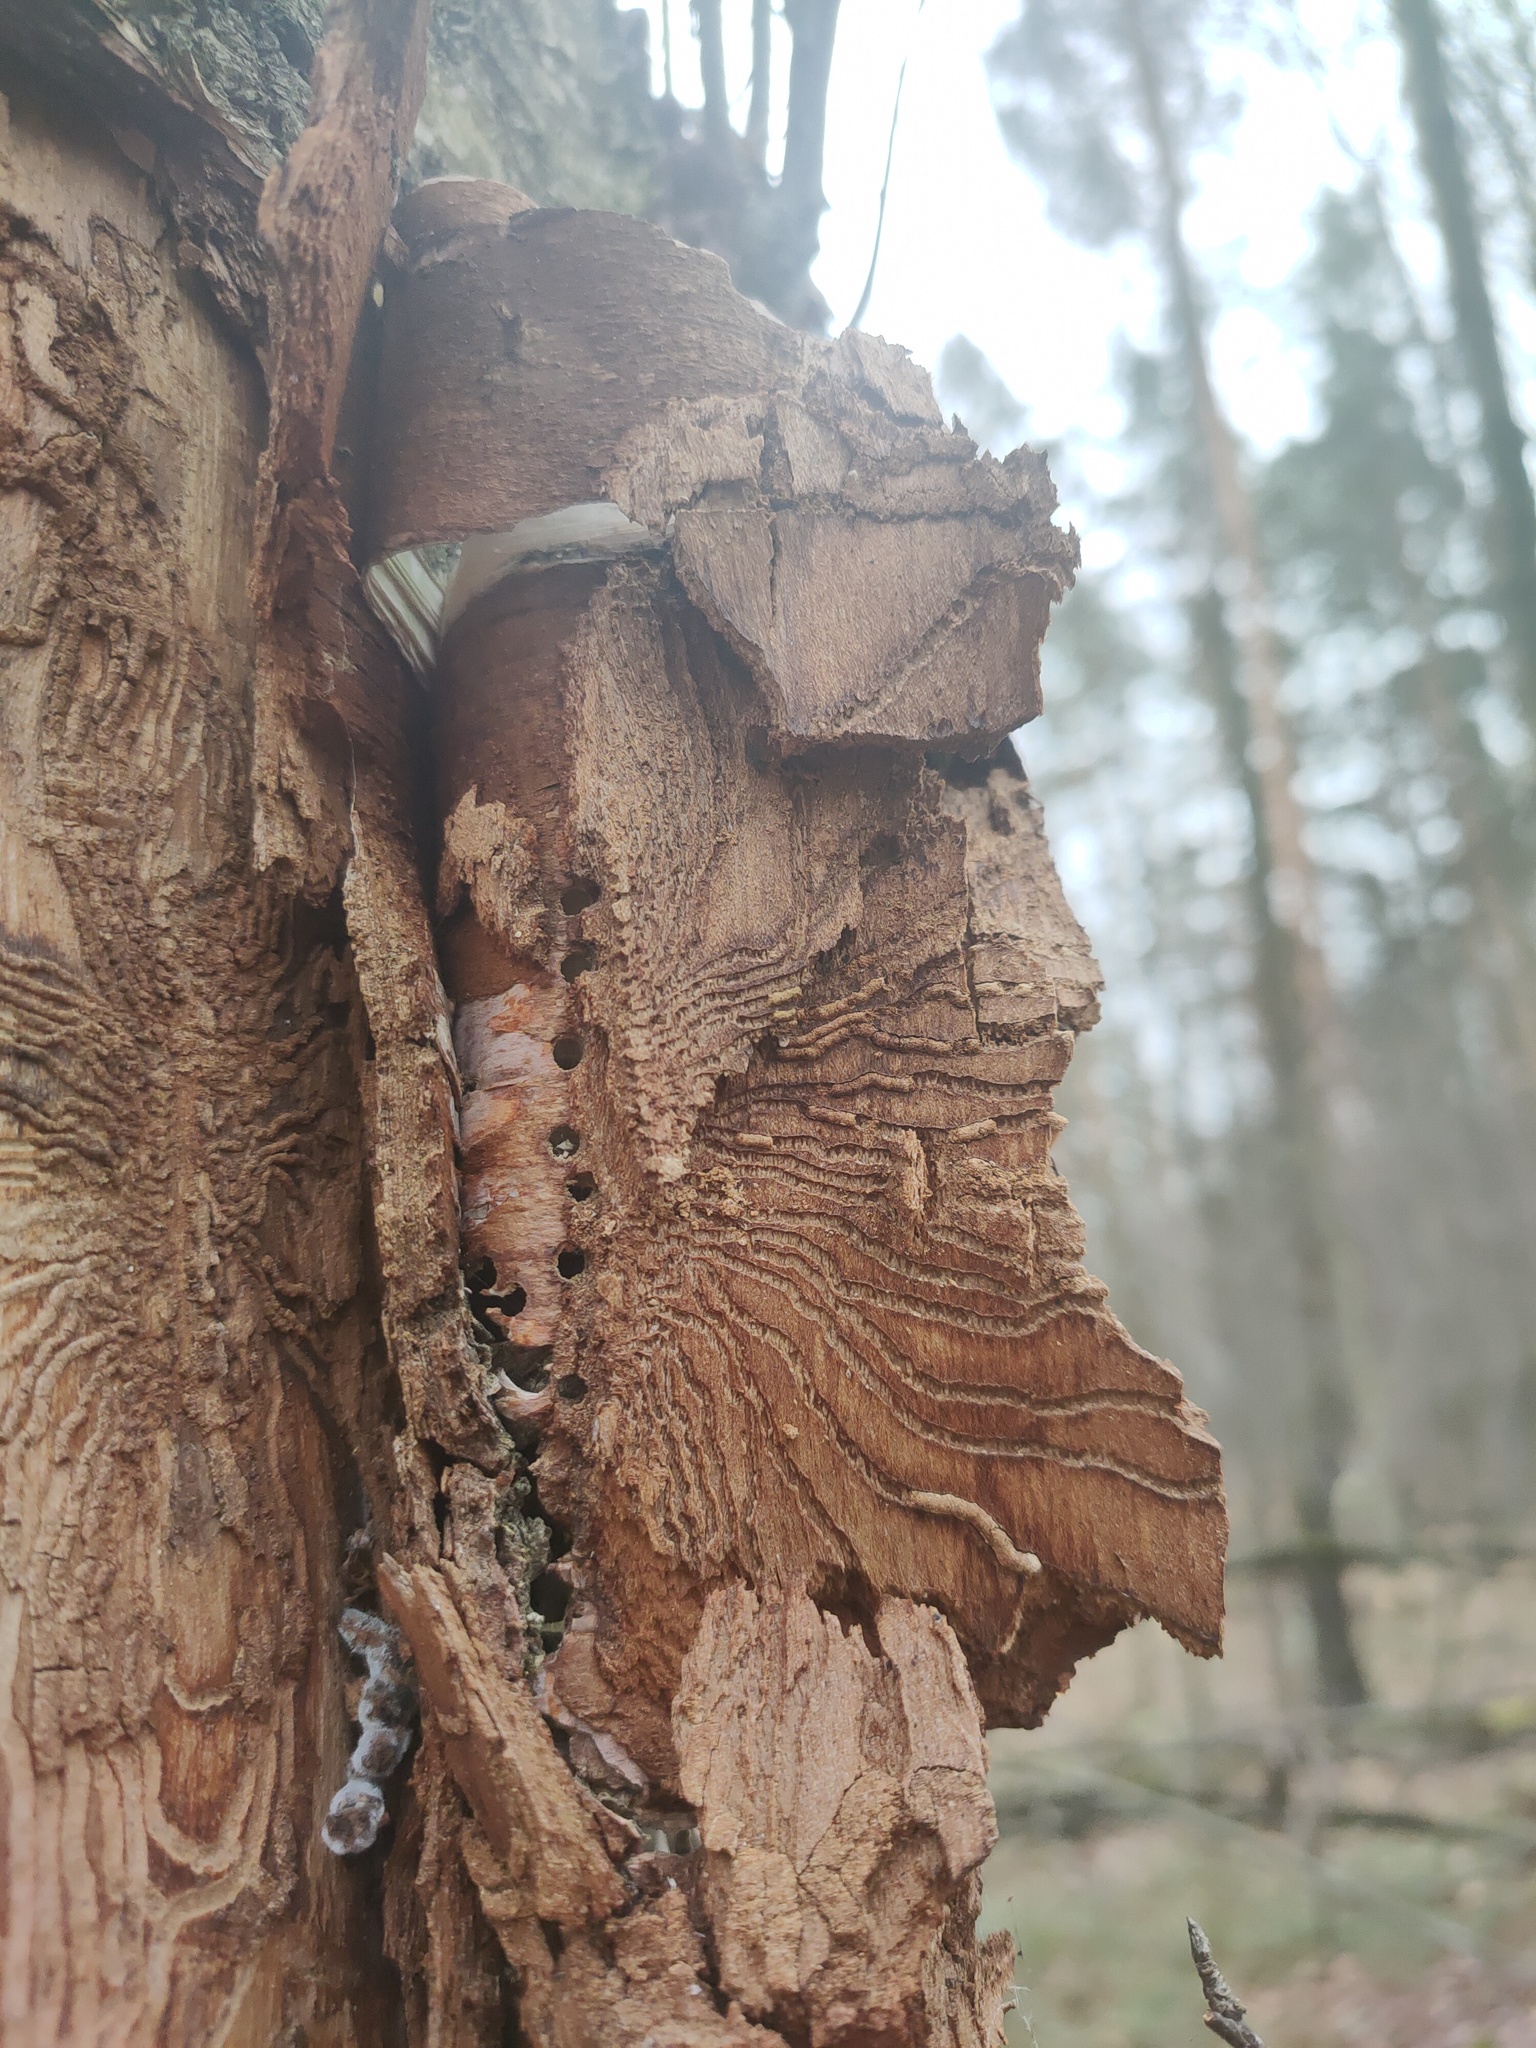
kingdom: Animalia
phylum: Arthropoda
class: Insecta
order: Coleoptera
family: Curculionidae
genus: Scolytus
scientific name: Scolytus ratzeburgii
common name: Birch bark beetle
